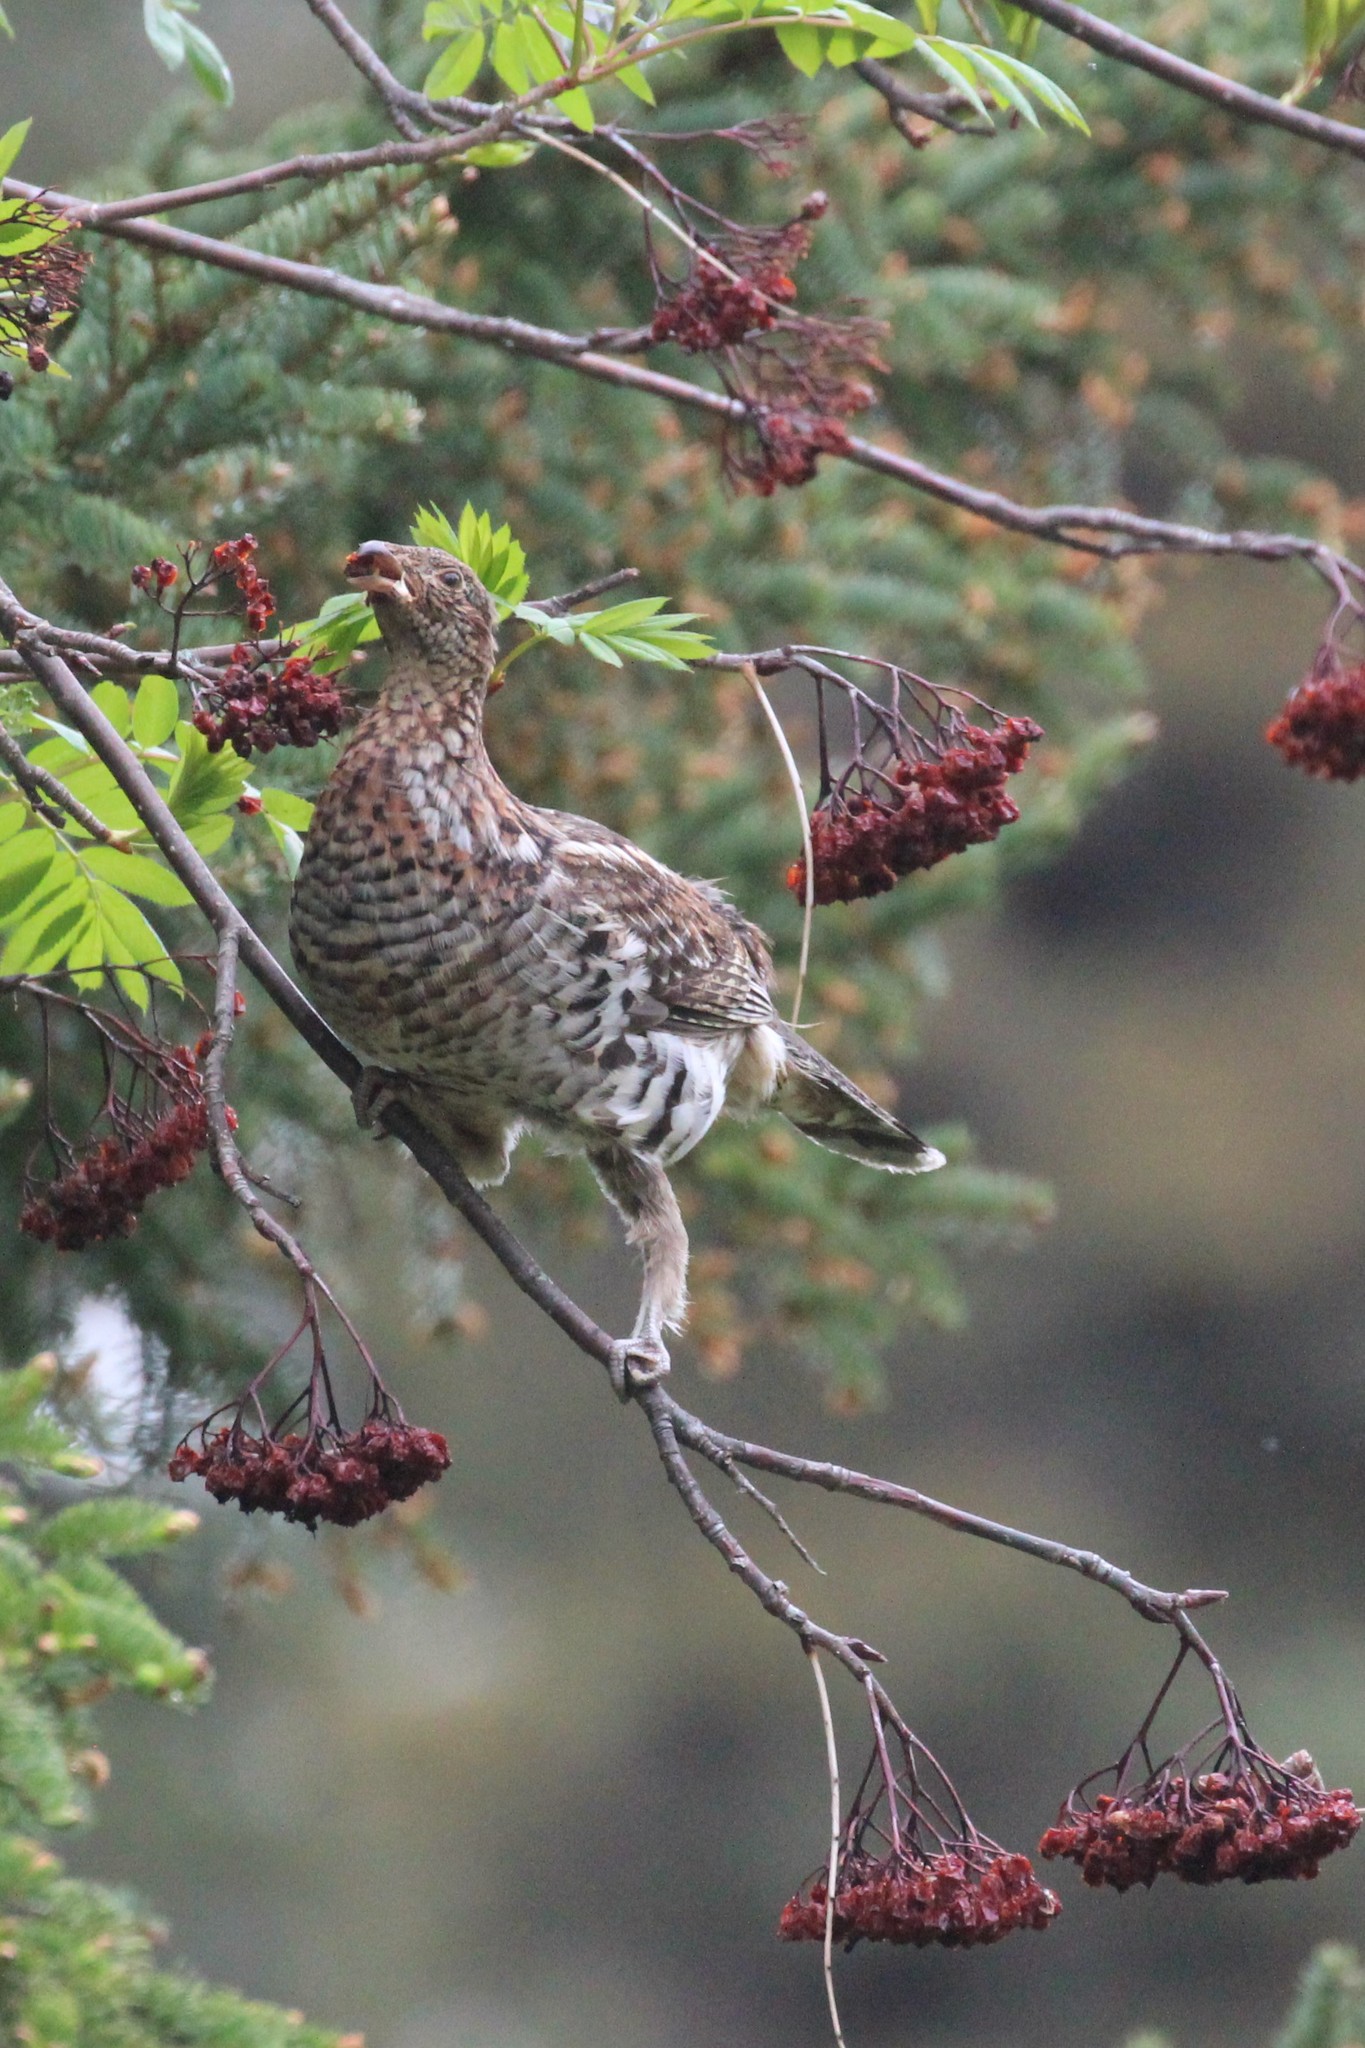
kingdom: Animalia
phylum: Chordata
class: Aves
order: Galliformes
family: Phasianidae
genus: Bonasa
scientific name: Bonasa umbellus
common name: Ruffed grouse
